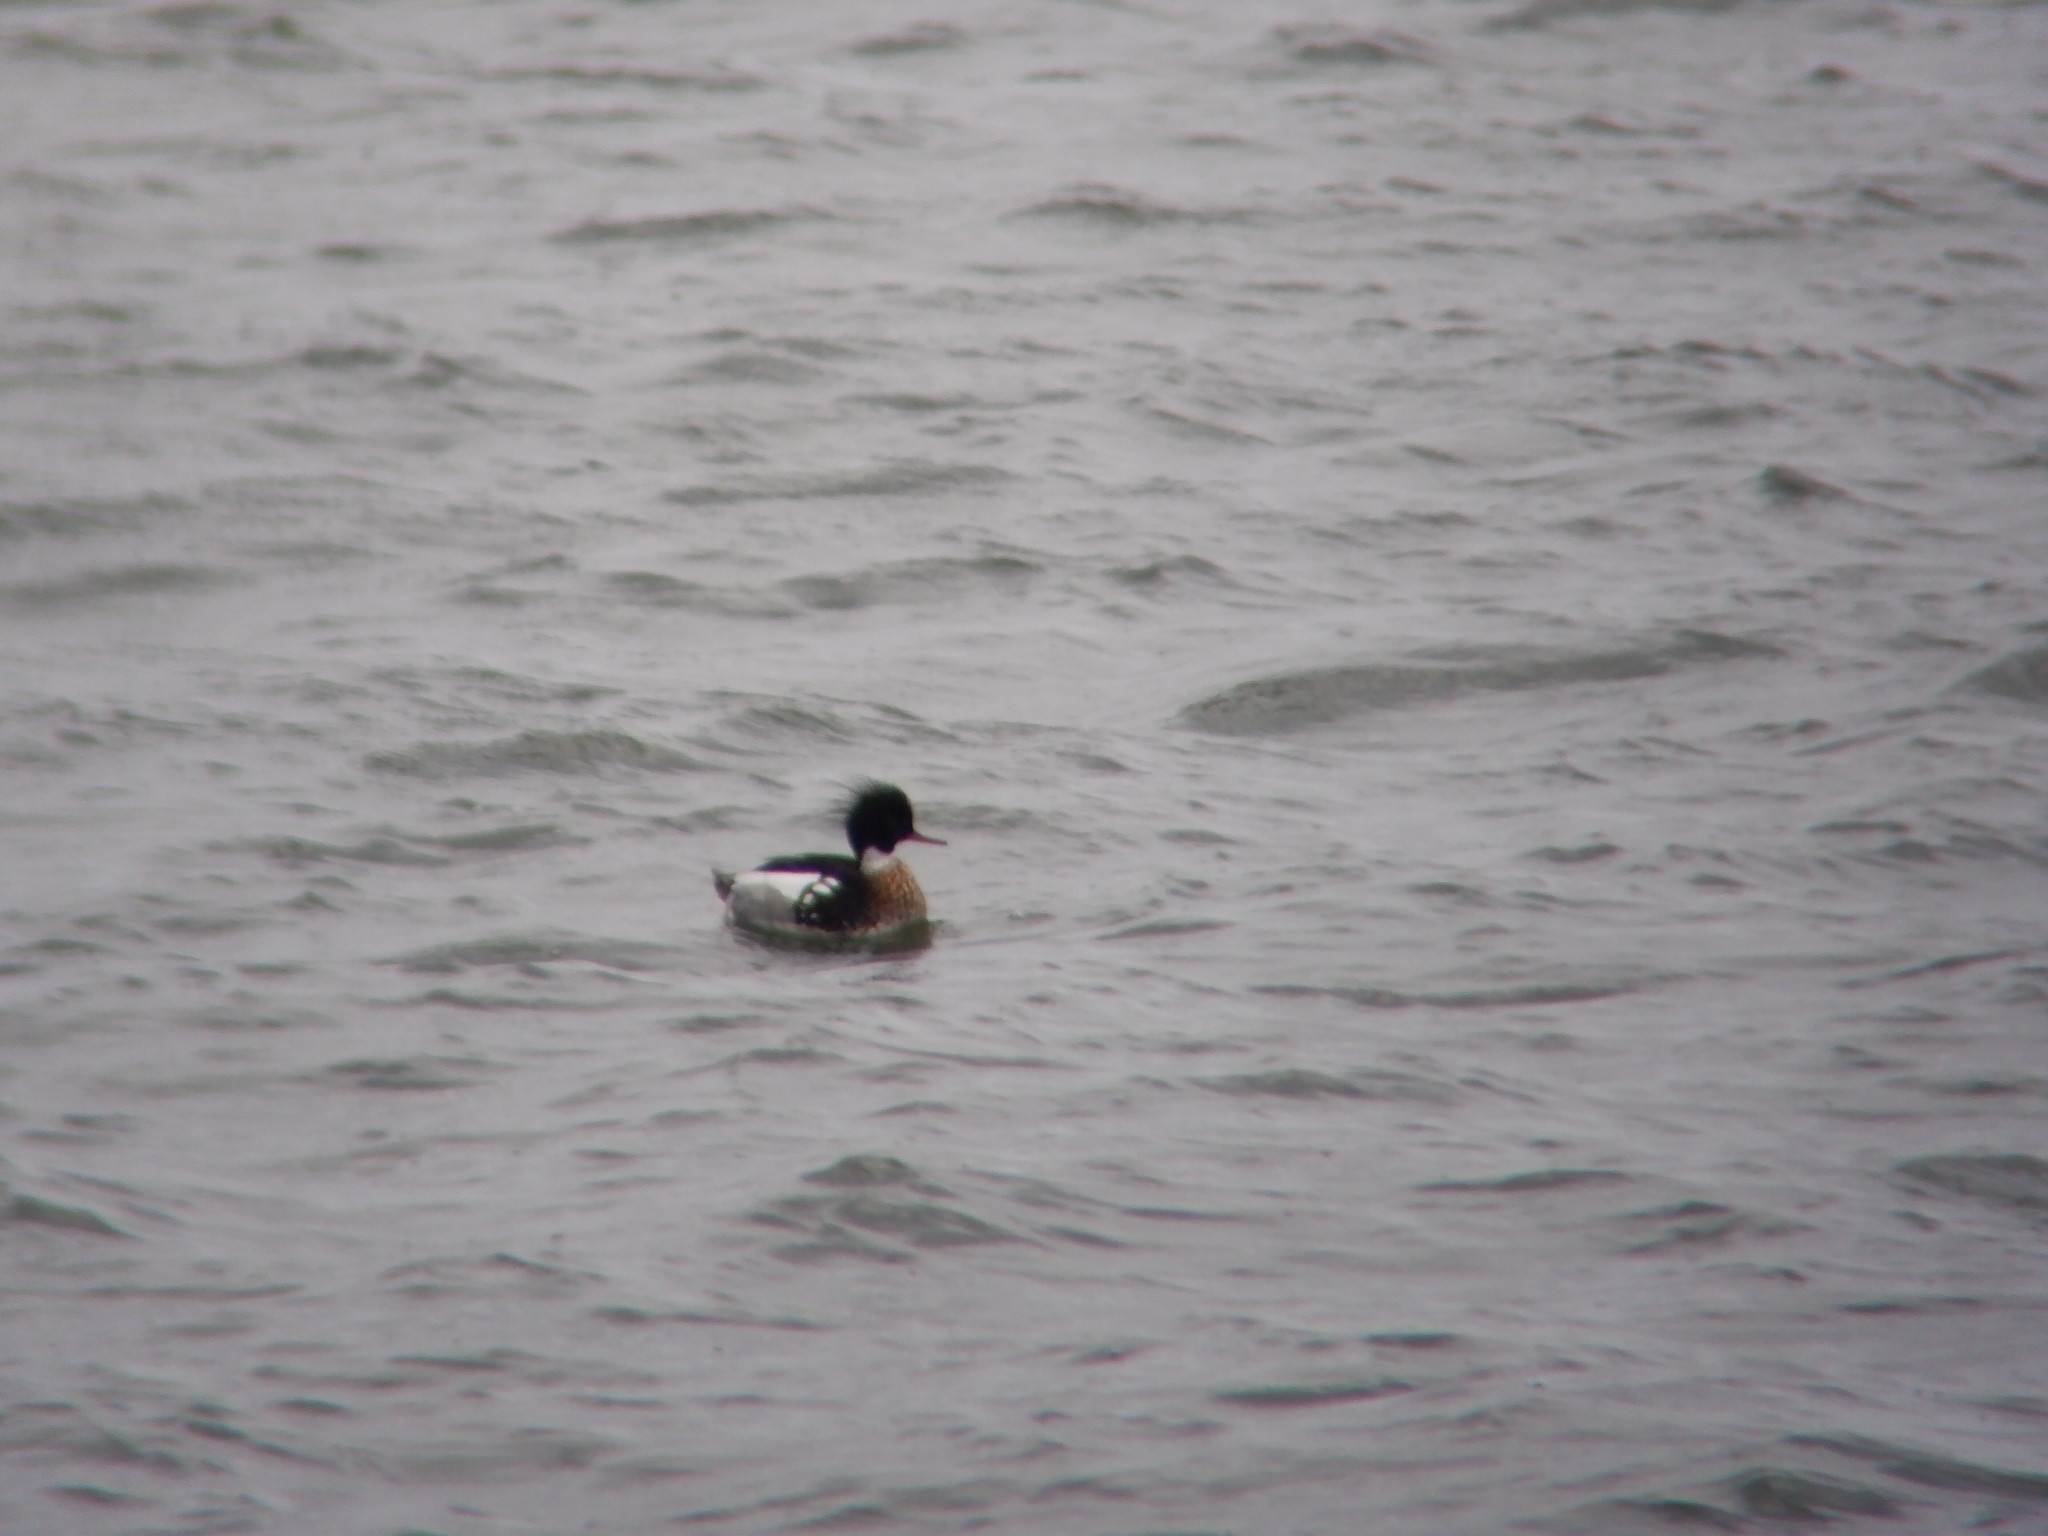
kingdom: Animalia
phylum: Chordata
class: Aves
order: Anseriformes
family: Anatidae
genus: Mergus
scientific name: Mergus serrator
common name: Red-breasted merganser
